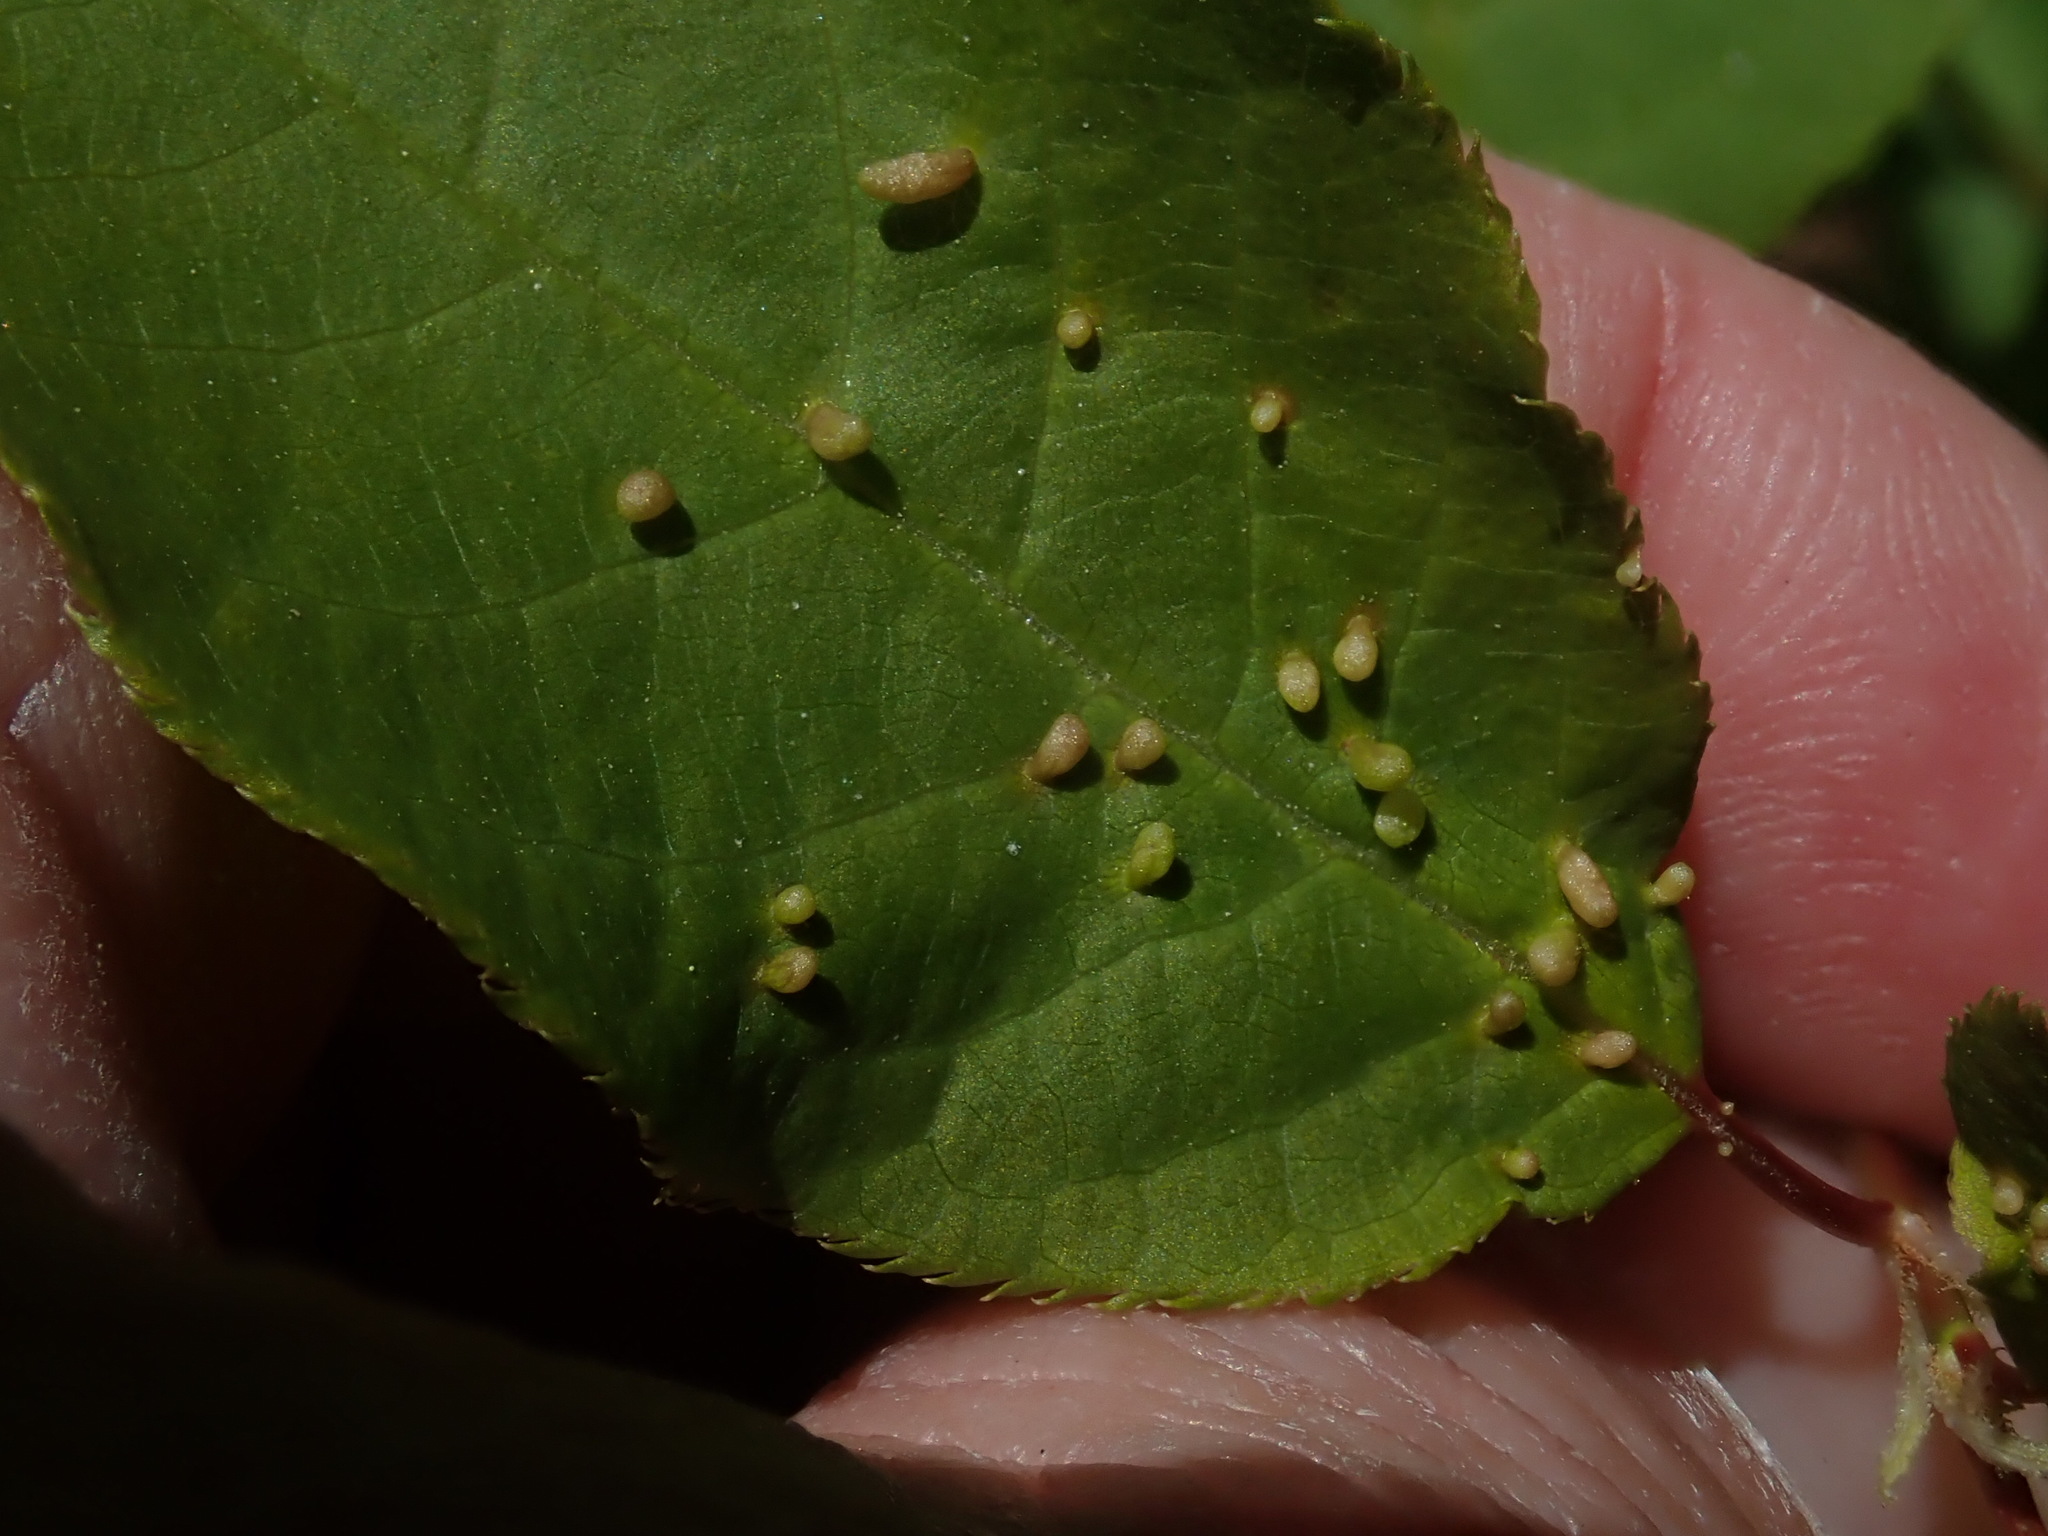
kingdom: Animalia
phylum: Arthropoda
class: Arachnida
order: Trombidiformes
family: Eriophyidae
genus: Eriophyes
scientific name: Eriophyes
